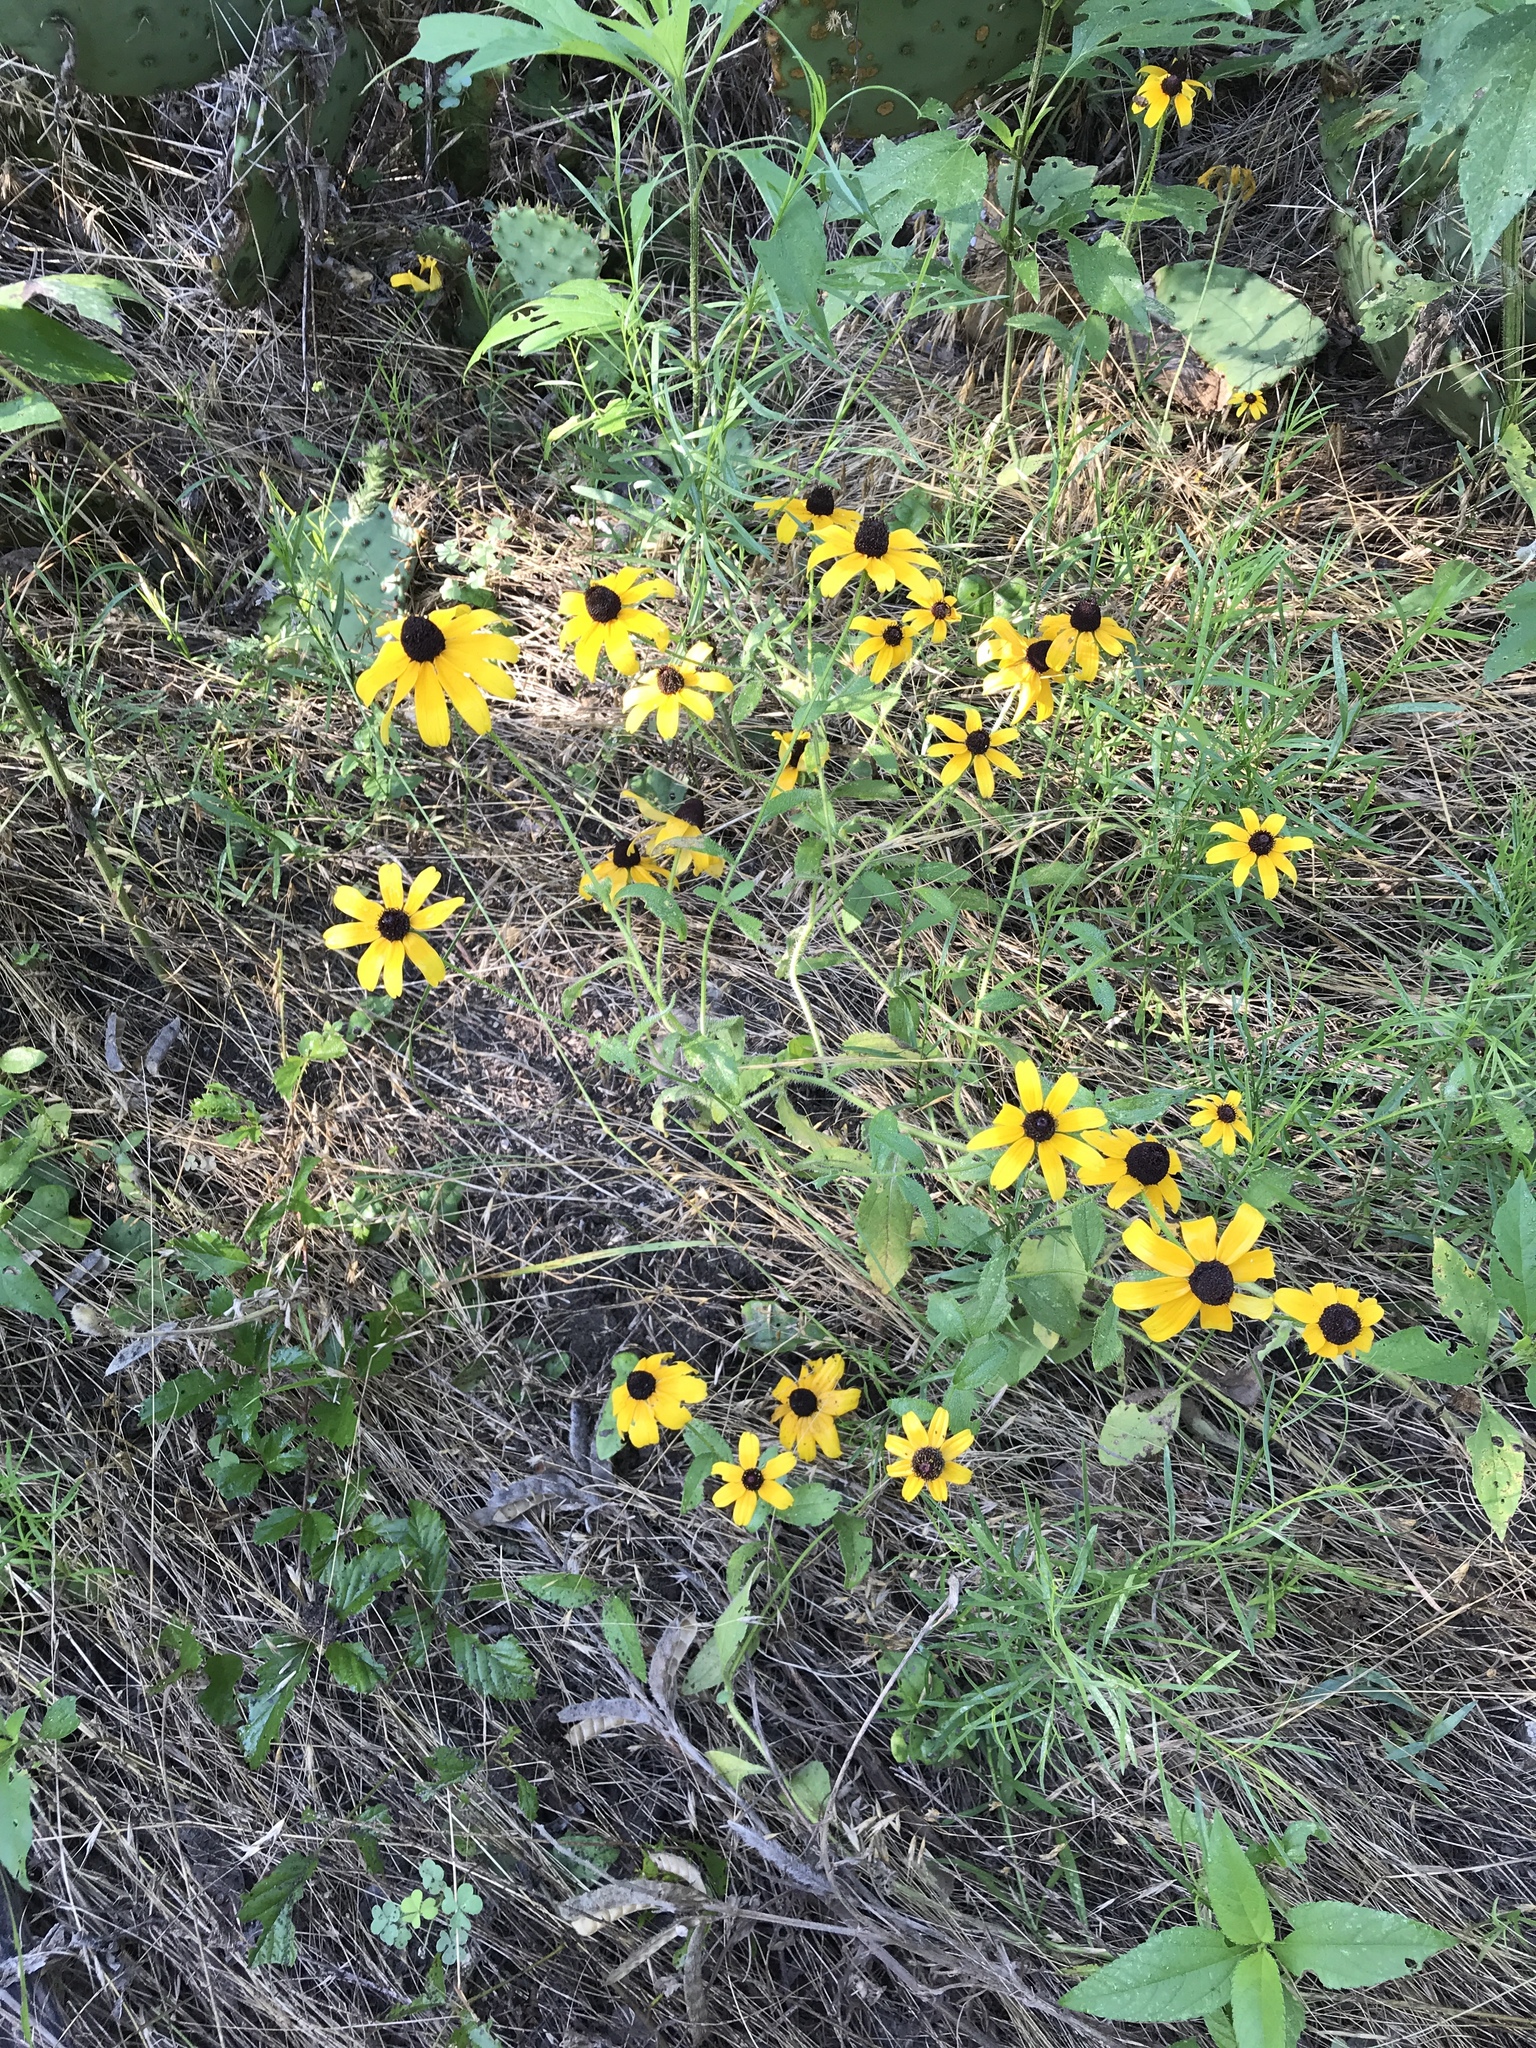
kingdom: Plantae
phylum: Tracheophyta
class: Magnoliopsida
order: Asterales
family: Asteraceae
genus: Rudbeckia
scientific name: Rudbeckia hirta
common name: Black-eyed-susan
